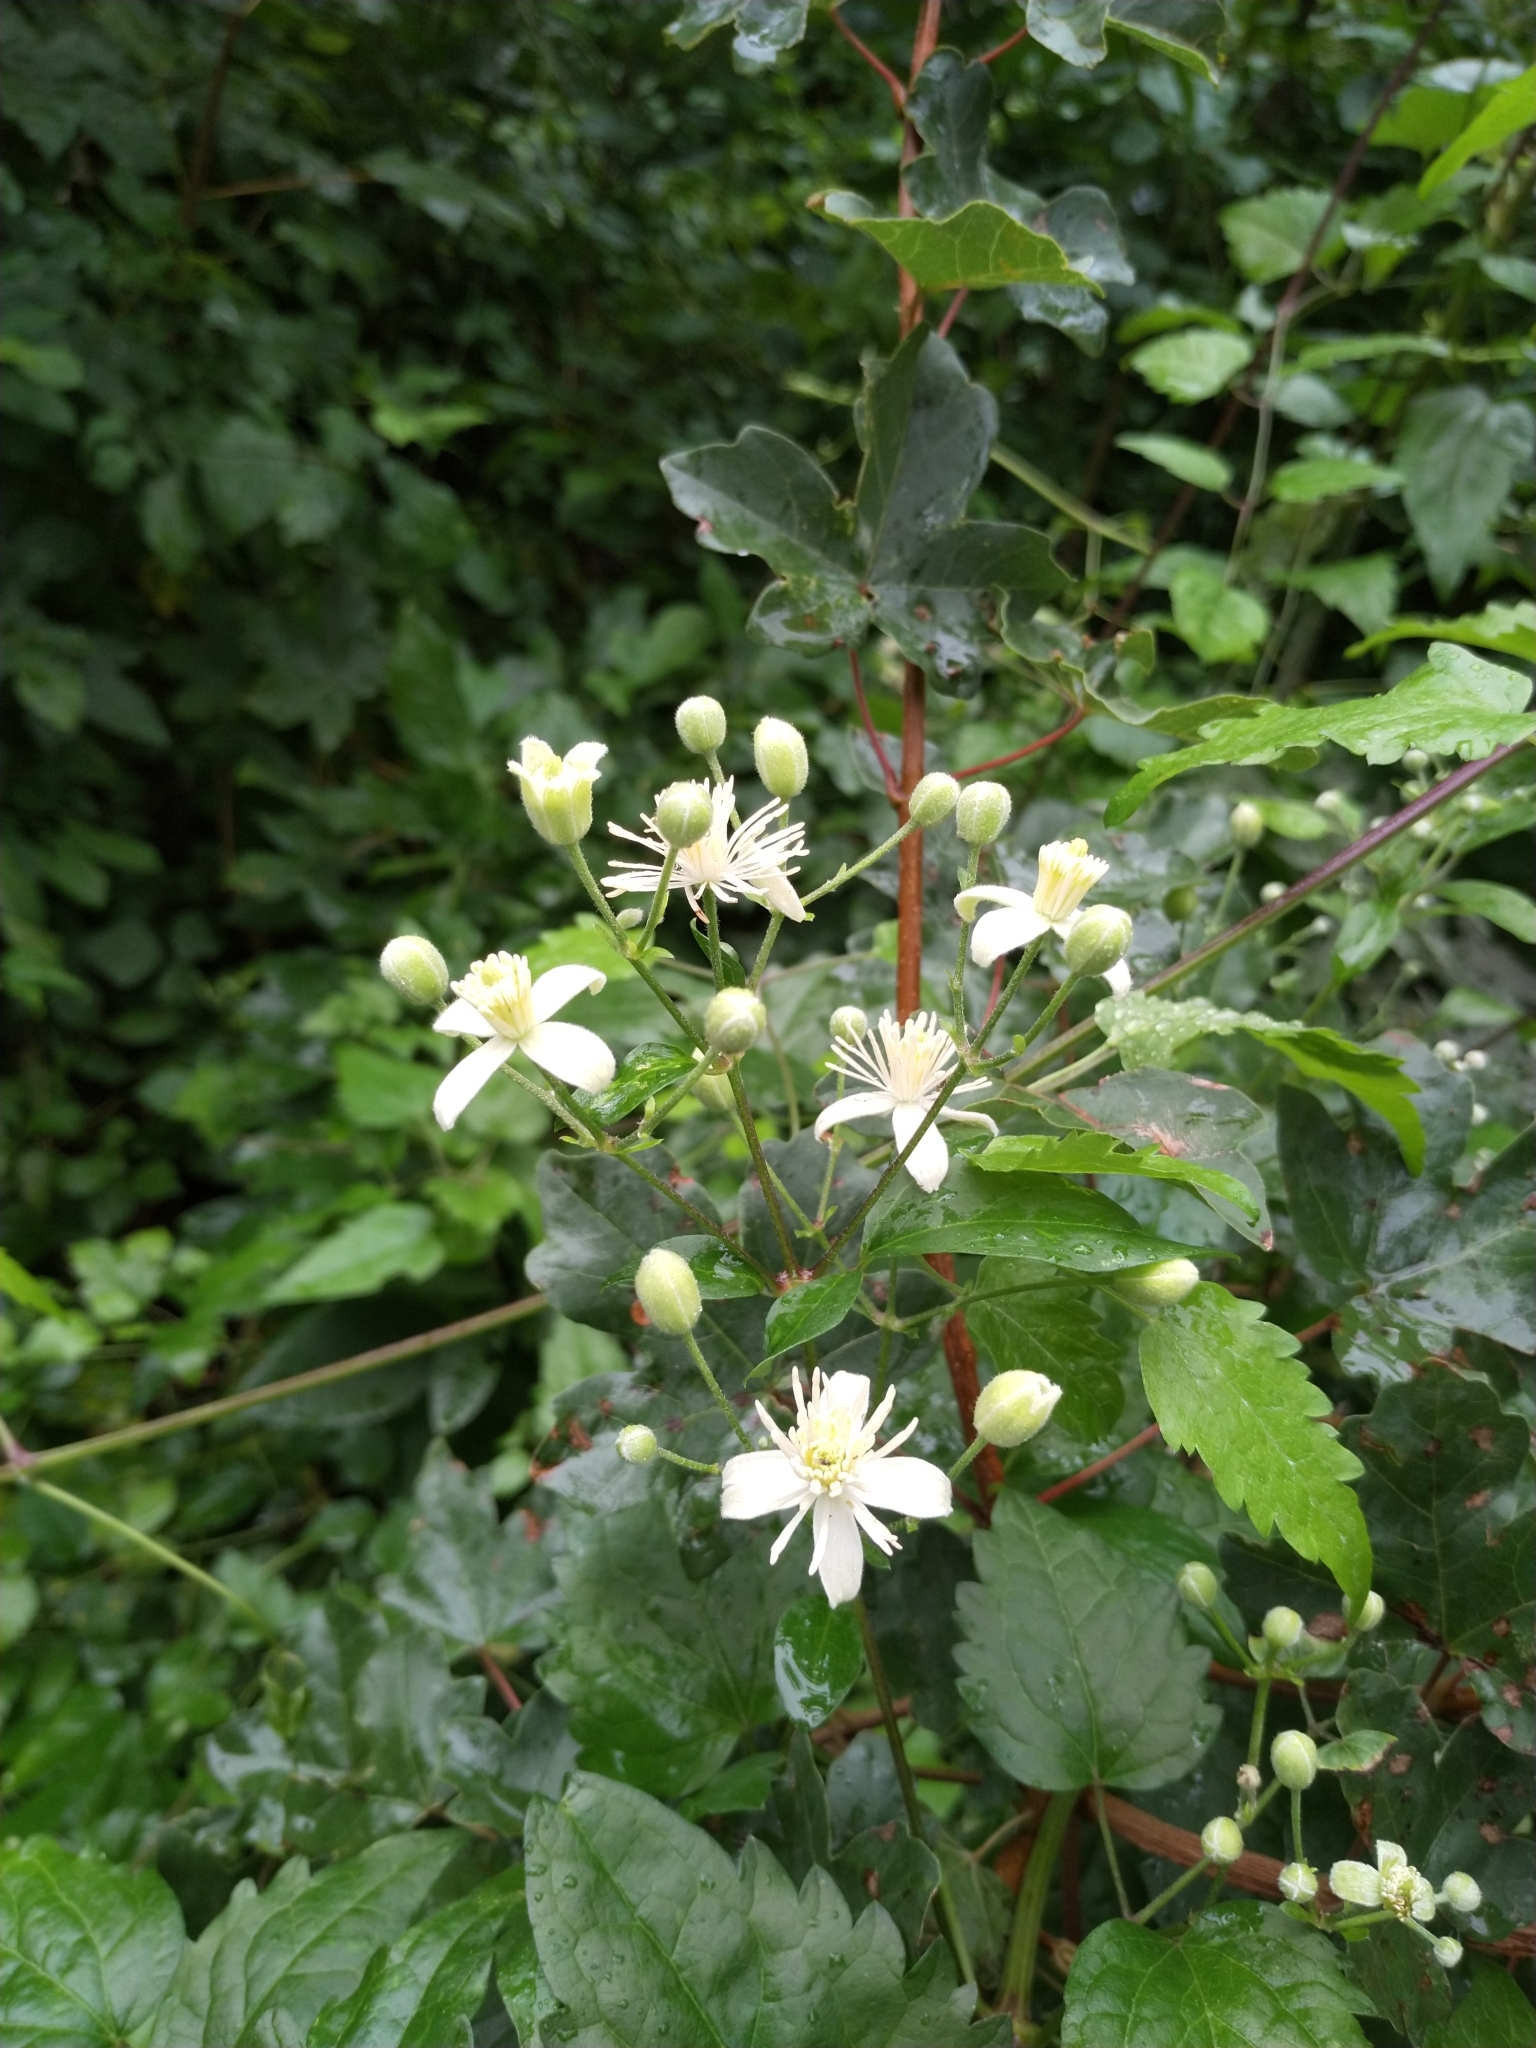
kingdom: Plantae
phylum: Tracheophyta
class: Magnoliopsida
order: Ranunculales
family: Ranunculaceae
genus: Clematis
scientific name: Clematis vitalba
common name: Evergreen clematis
